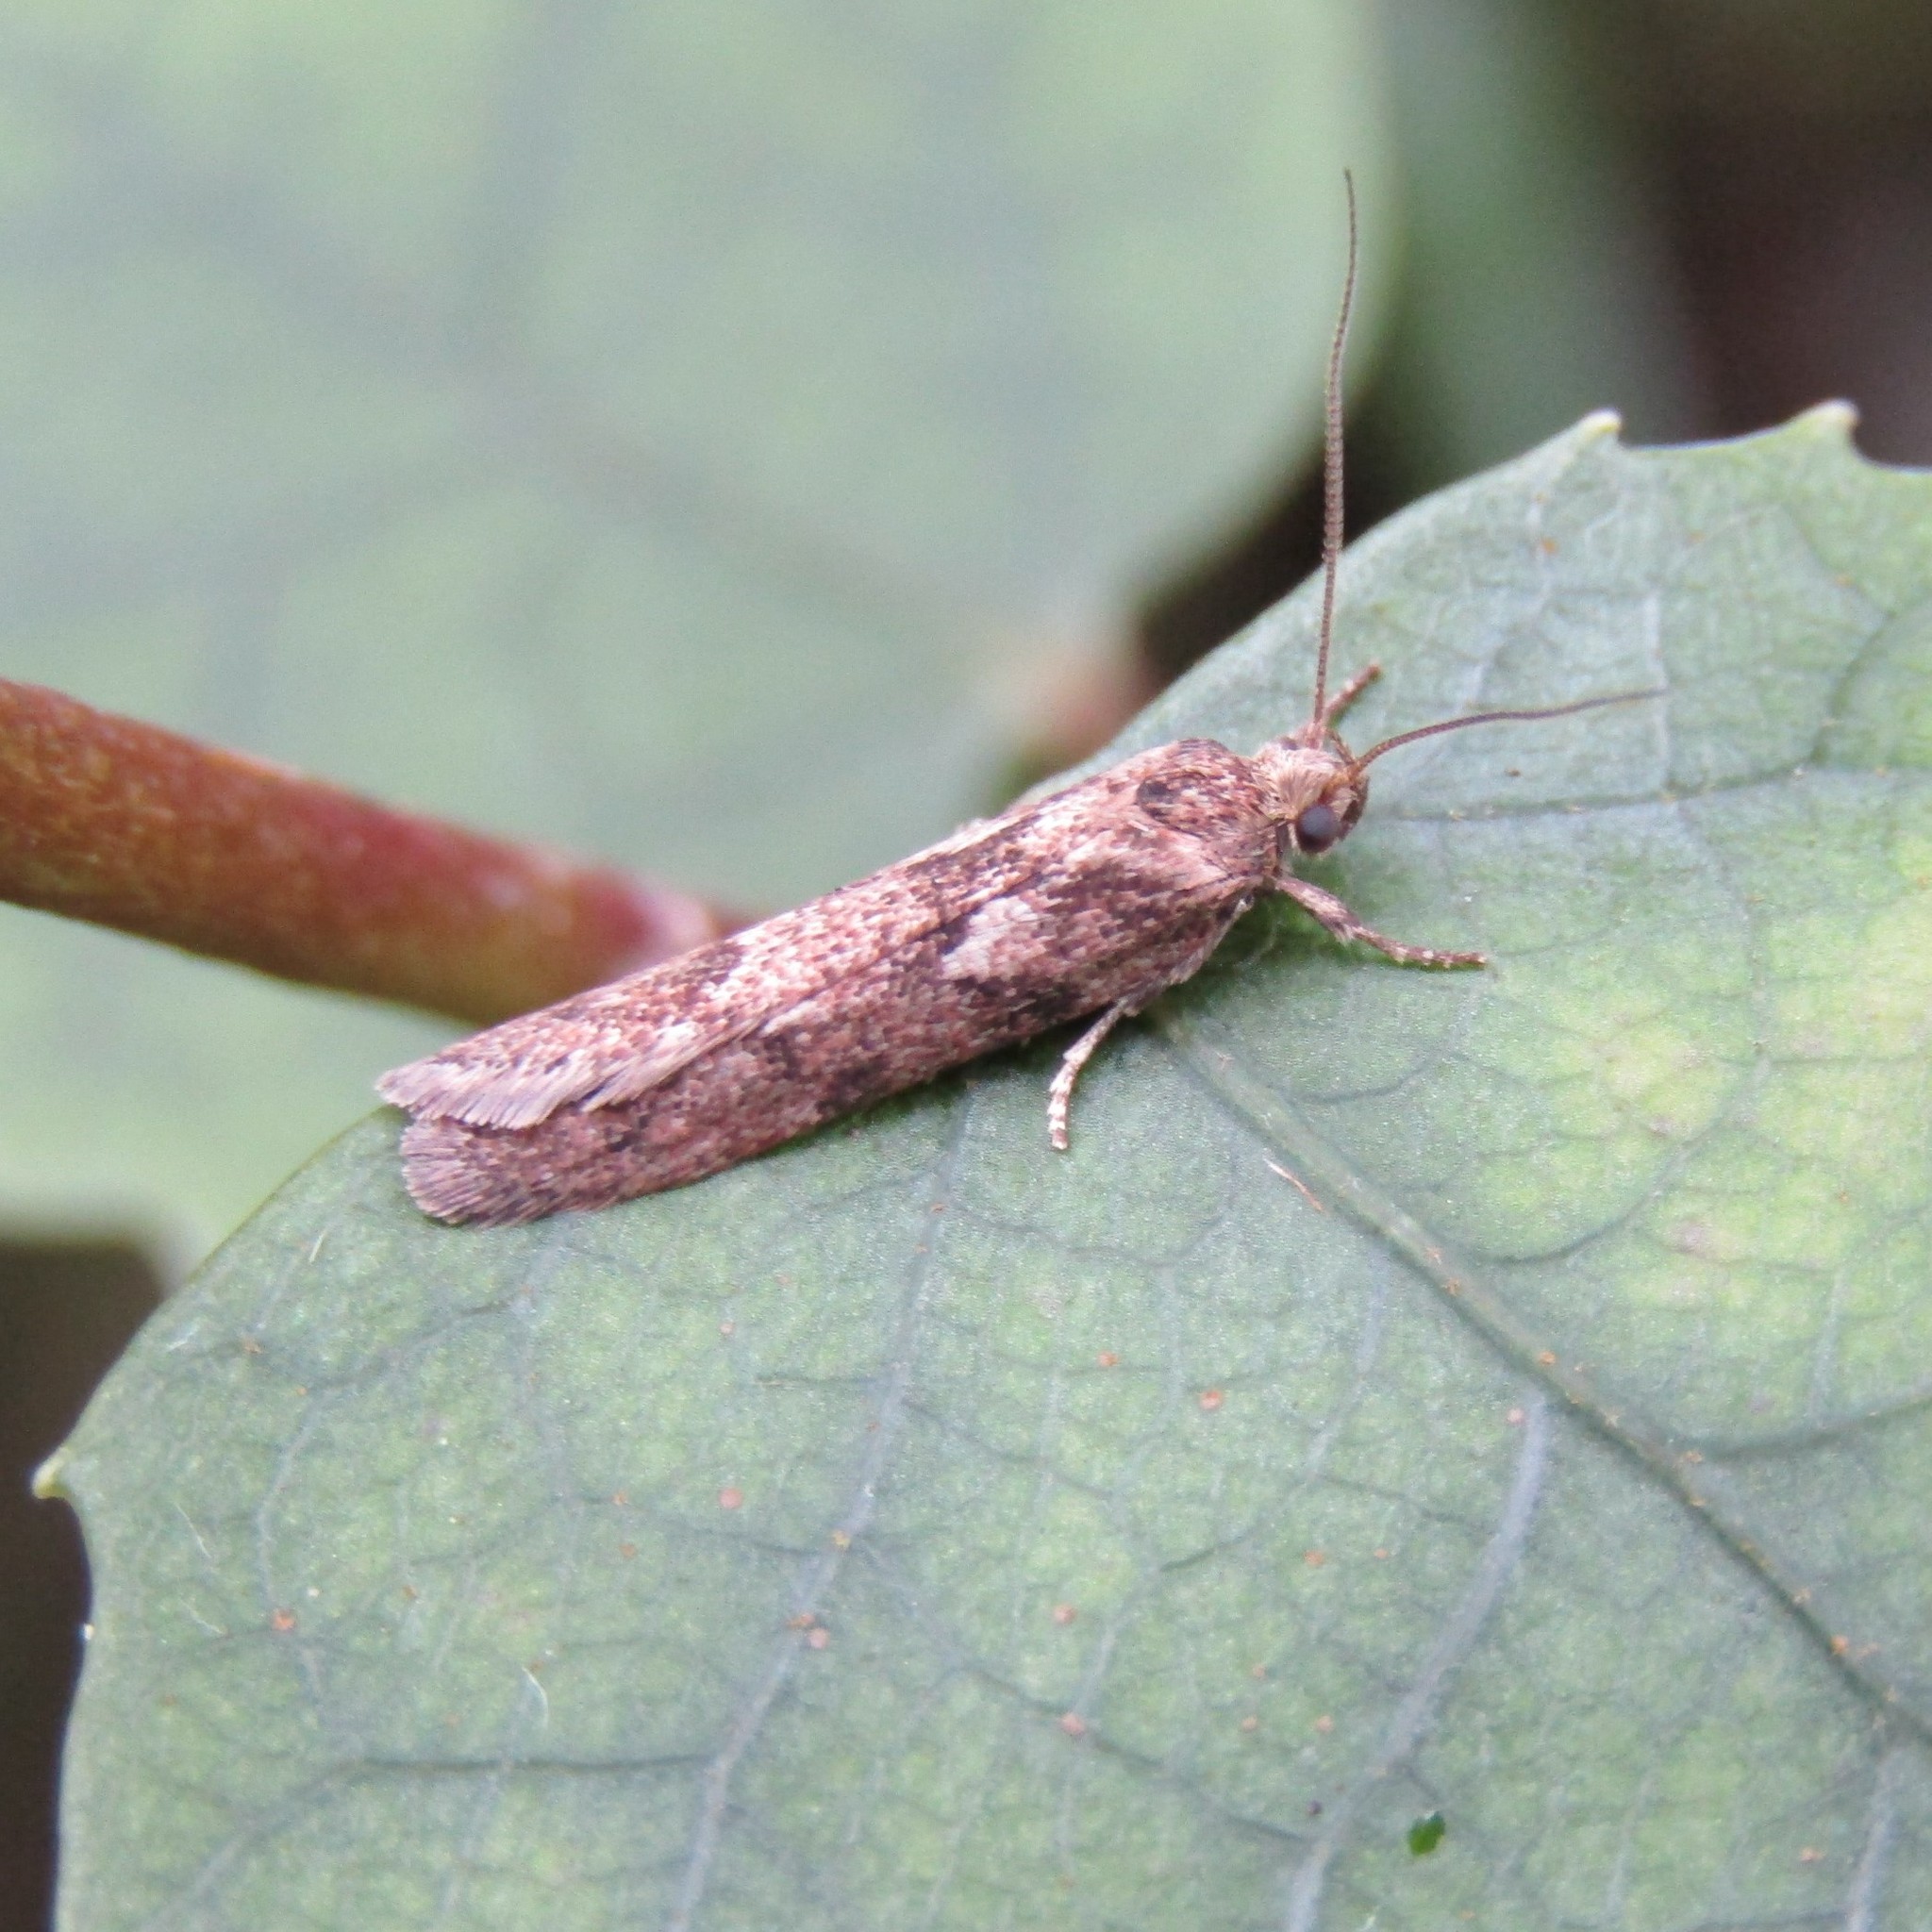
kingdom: Animalia
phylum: Arthropoda
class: Insecta
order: Lepidoptera
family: Oecophoridae
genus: Chersadaula
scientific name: Chersadaula ochrogastra
